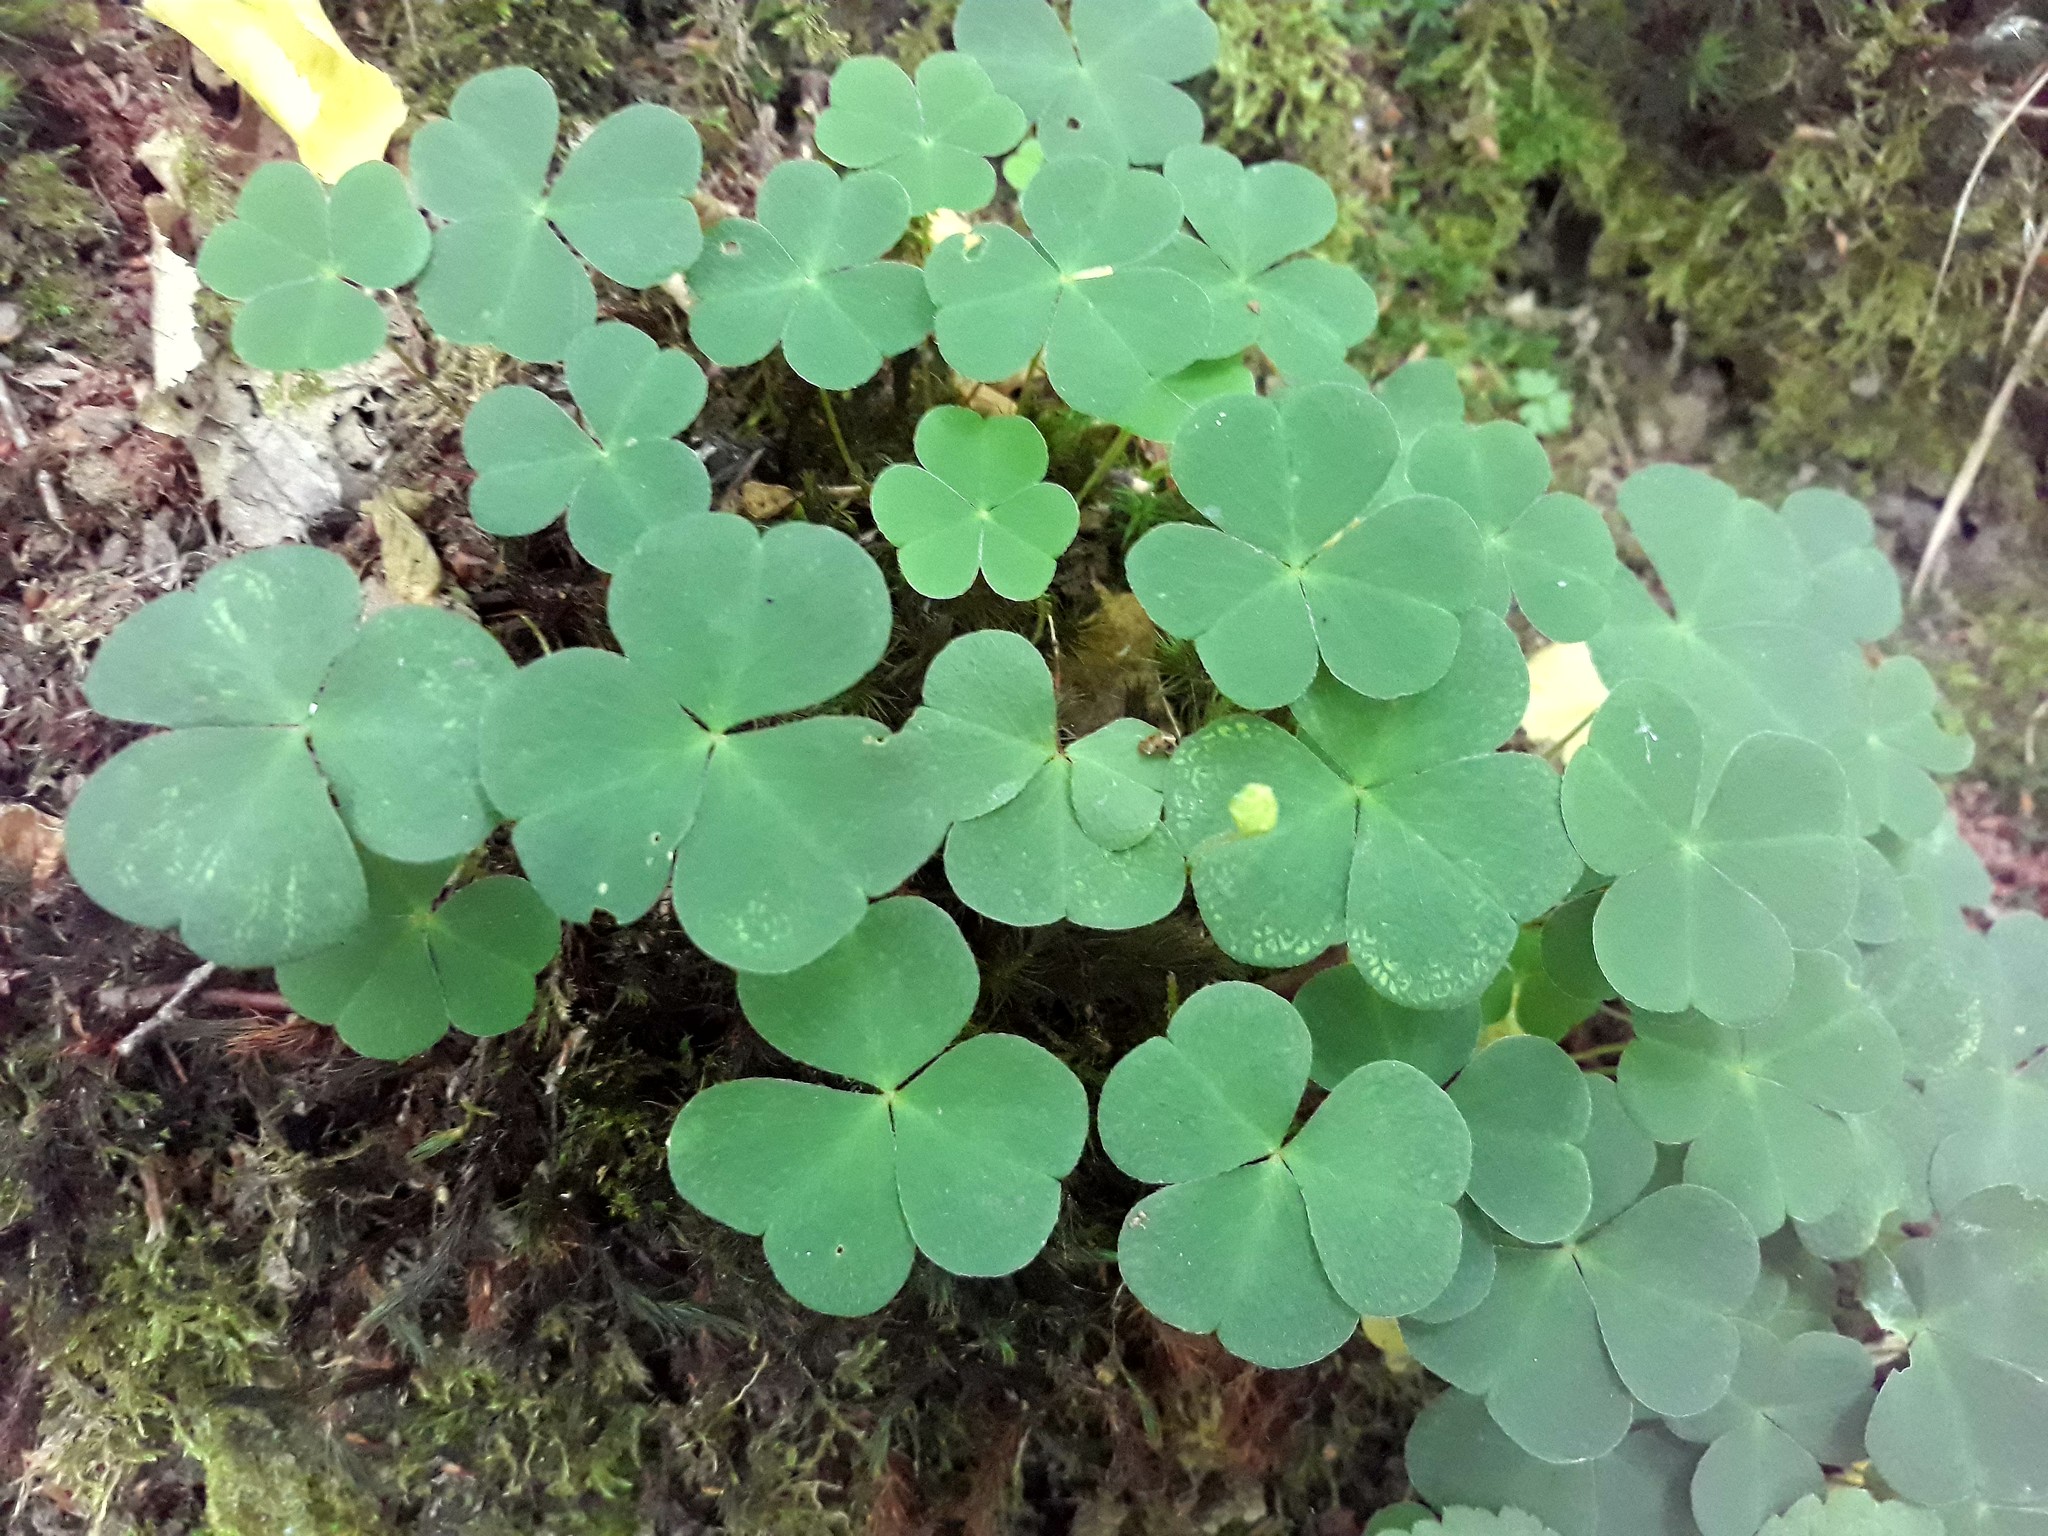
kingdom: Plantae
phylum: Tracheophyta
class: Magnoliopsida
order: Oxalidales
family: Oxalidaceae
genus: Oxalis
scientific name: Oxalis acetosella
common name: Wood-sorrel
